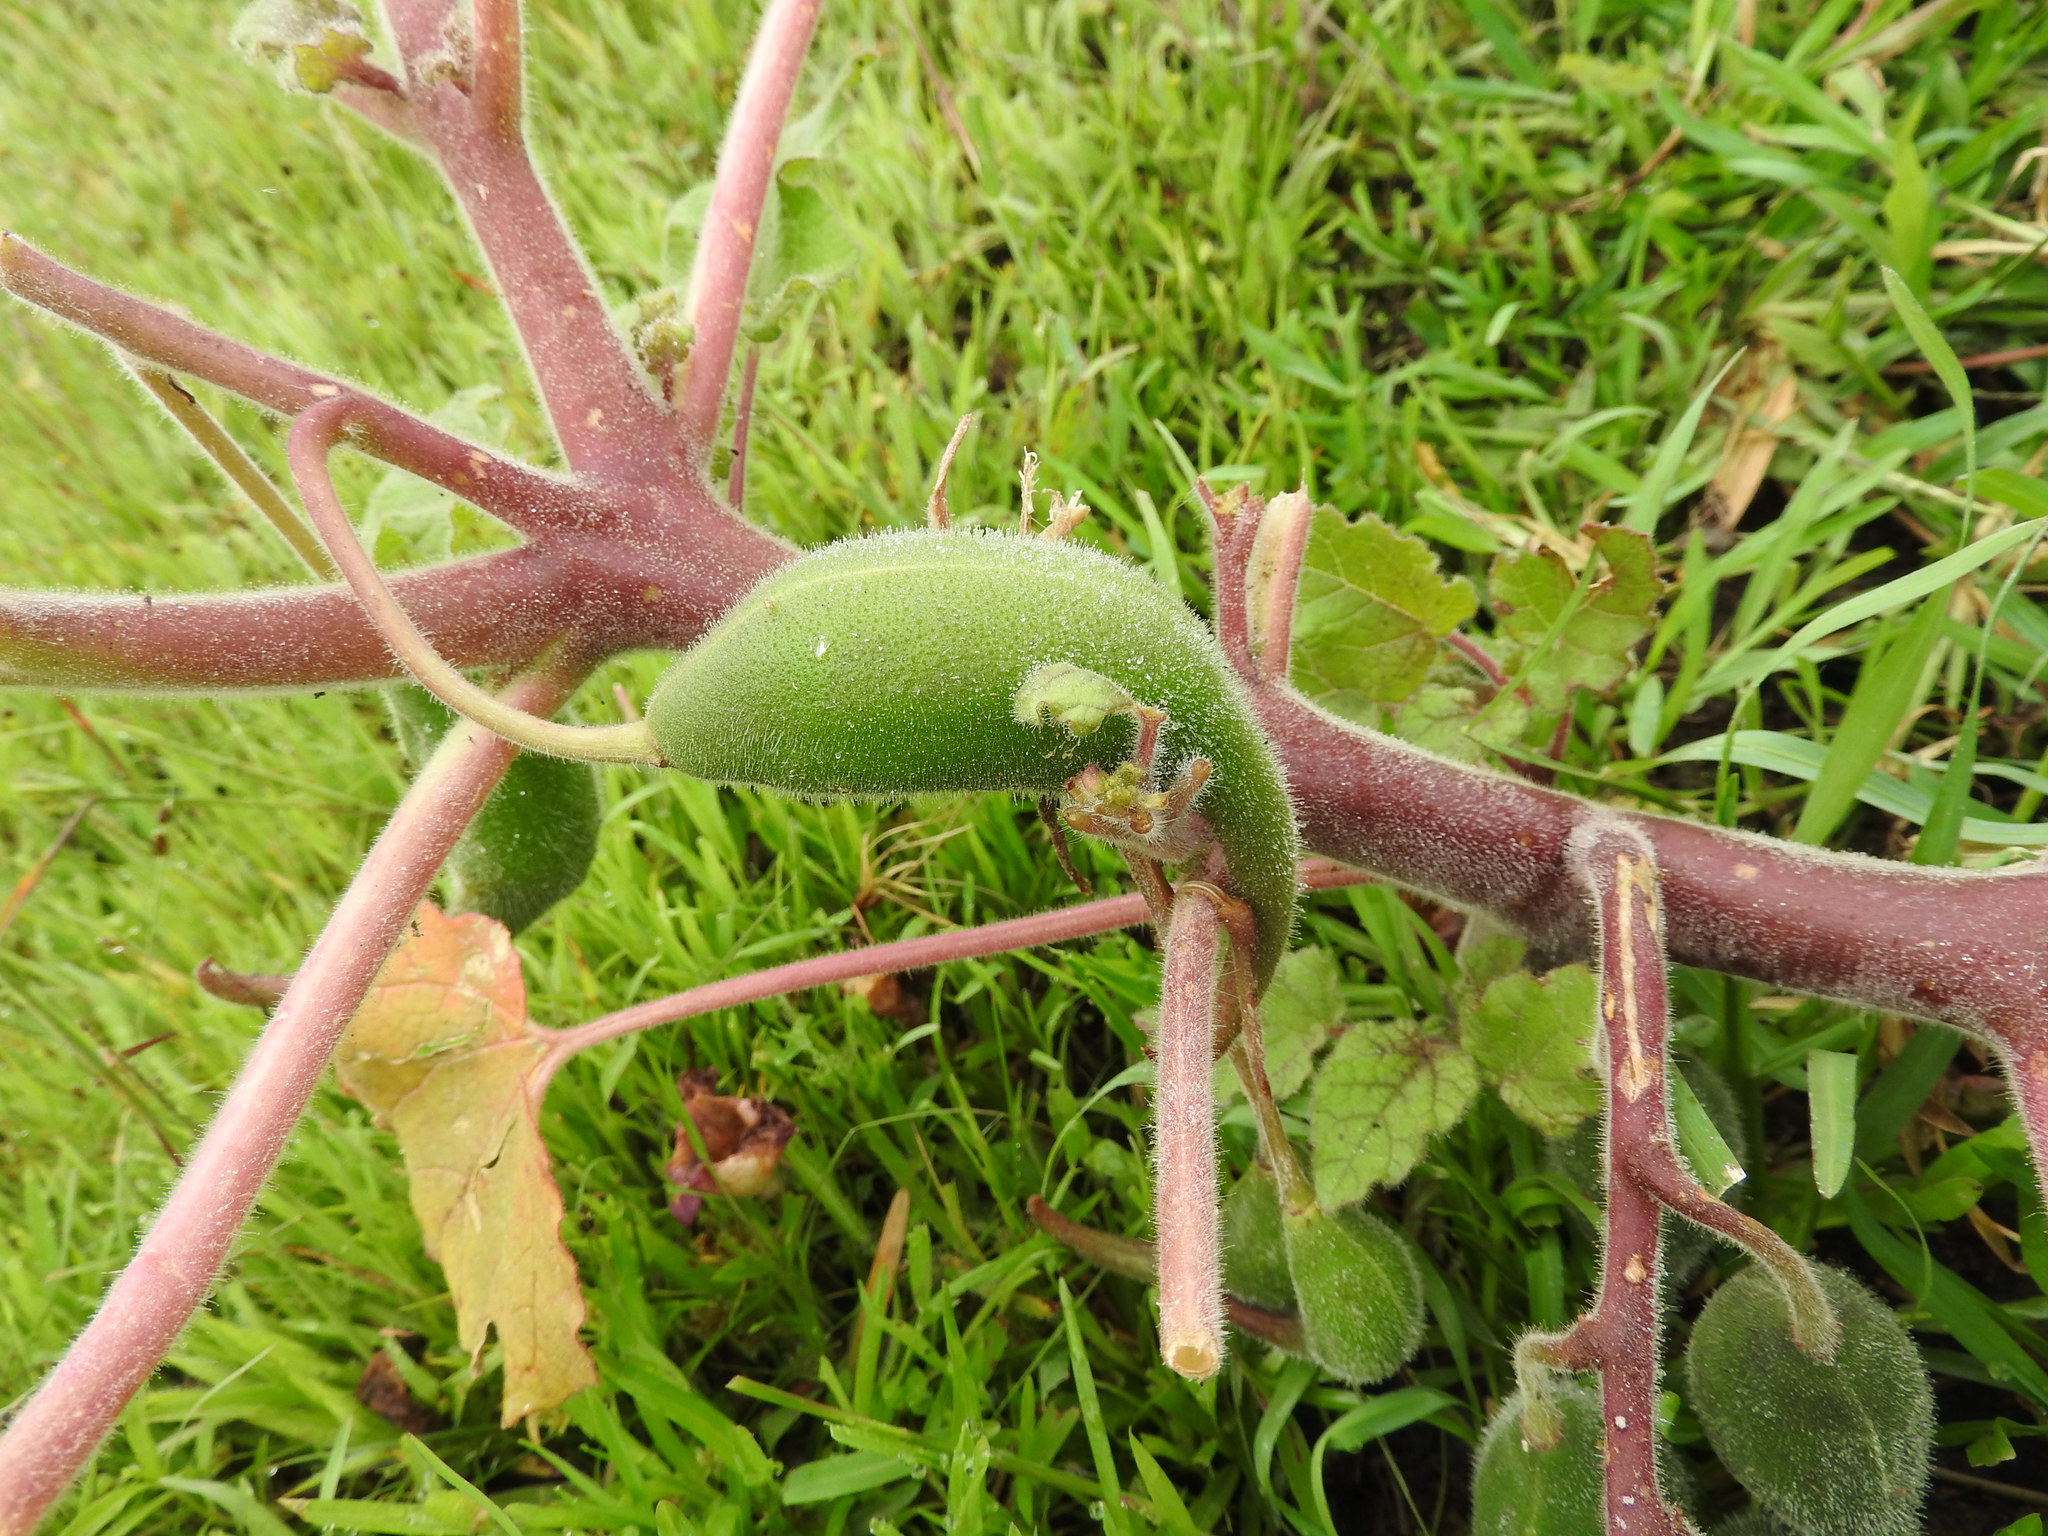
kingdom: Plantae
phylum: Tracheophyta
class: Magnoliopsida
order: Lamiales
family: Martyniaceae
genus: Proboscidea
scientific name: Proboscidea louisianica
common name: Elephant tusks
